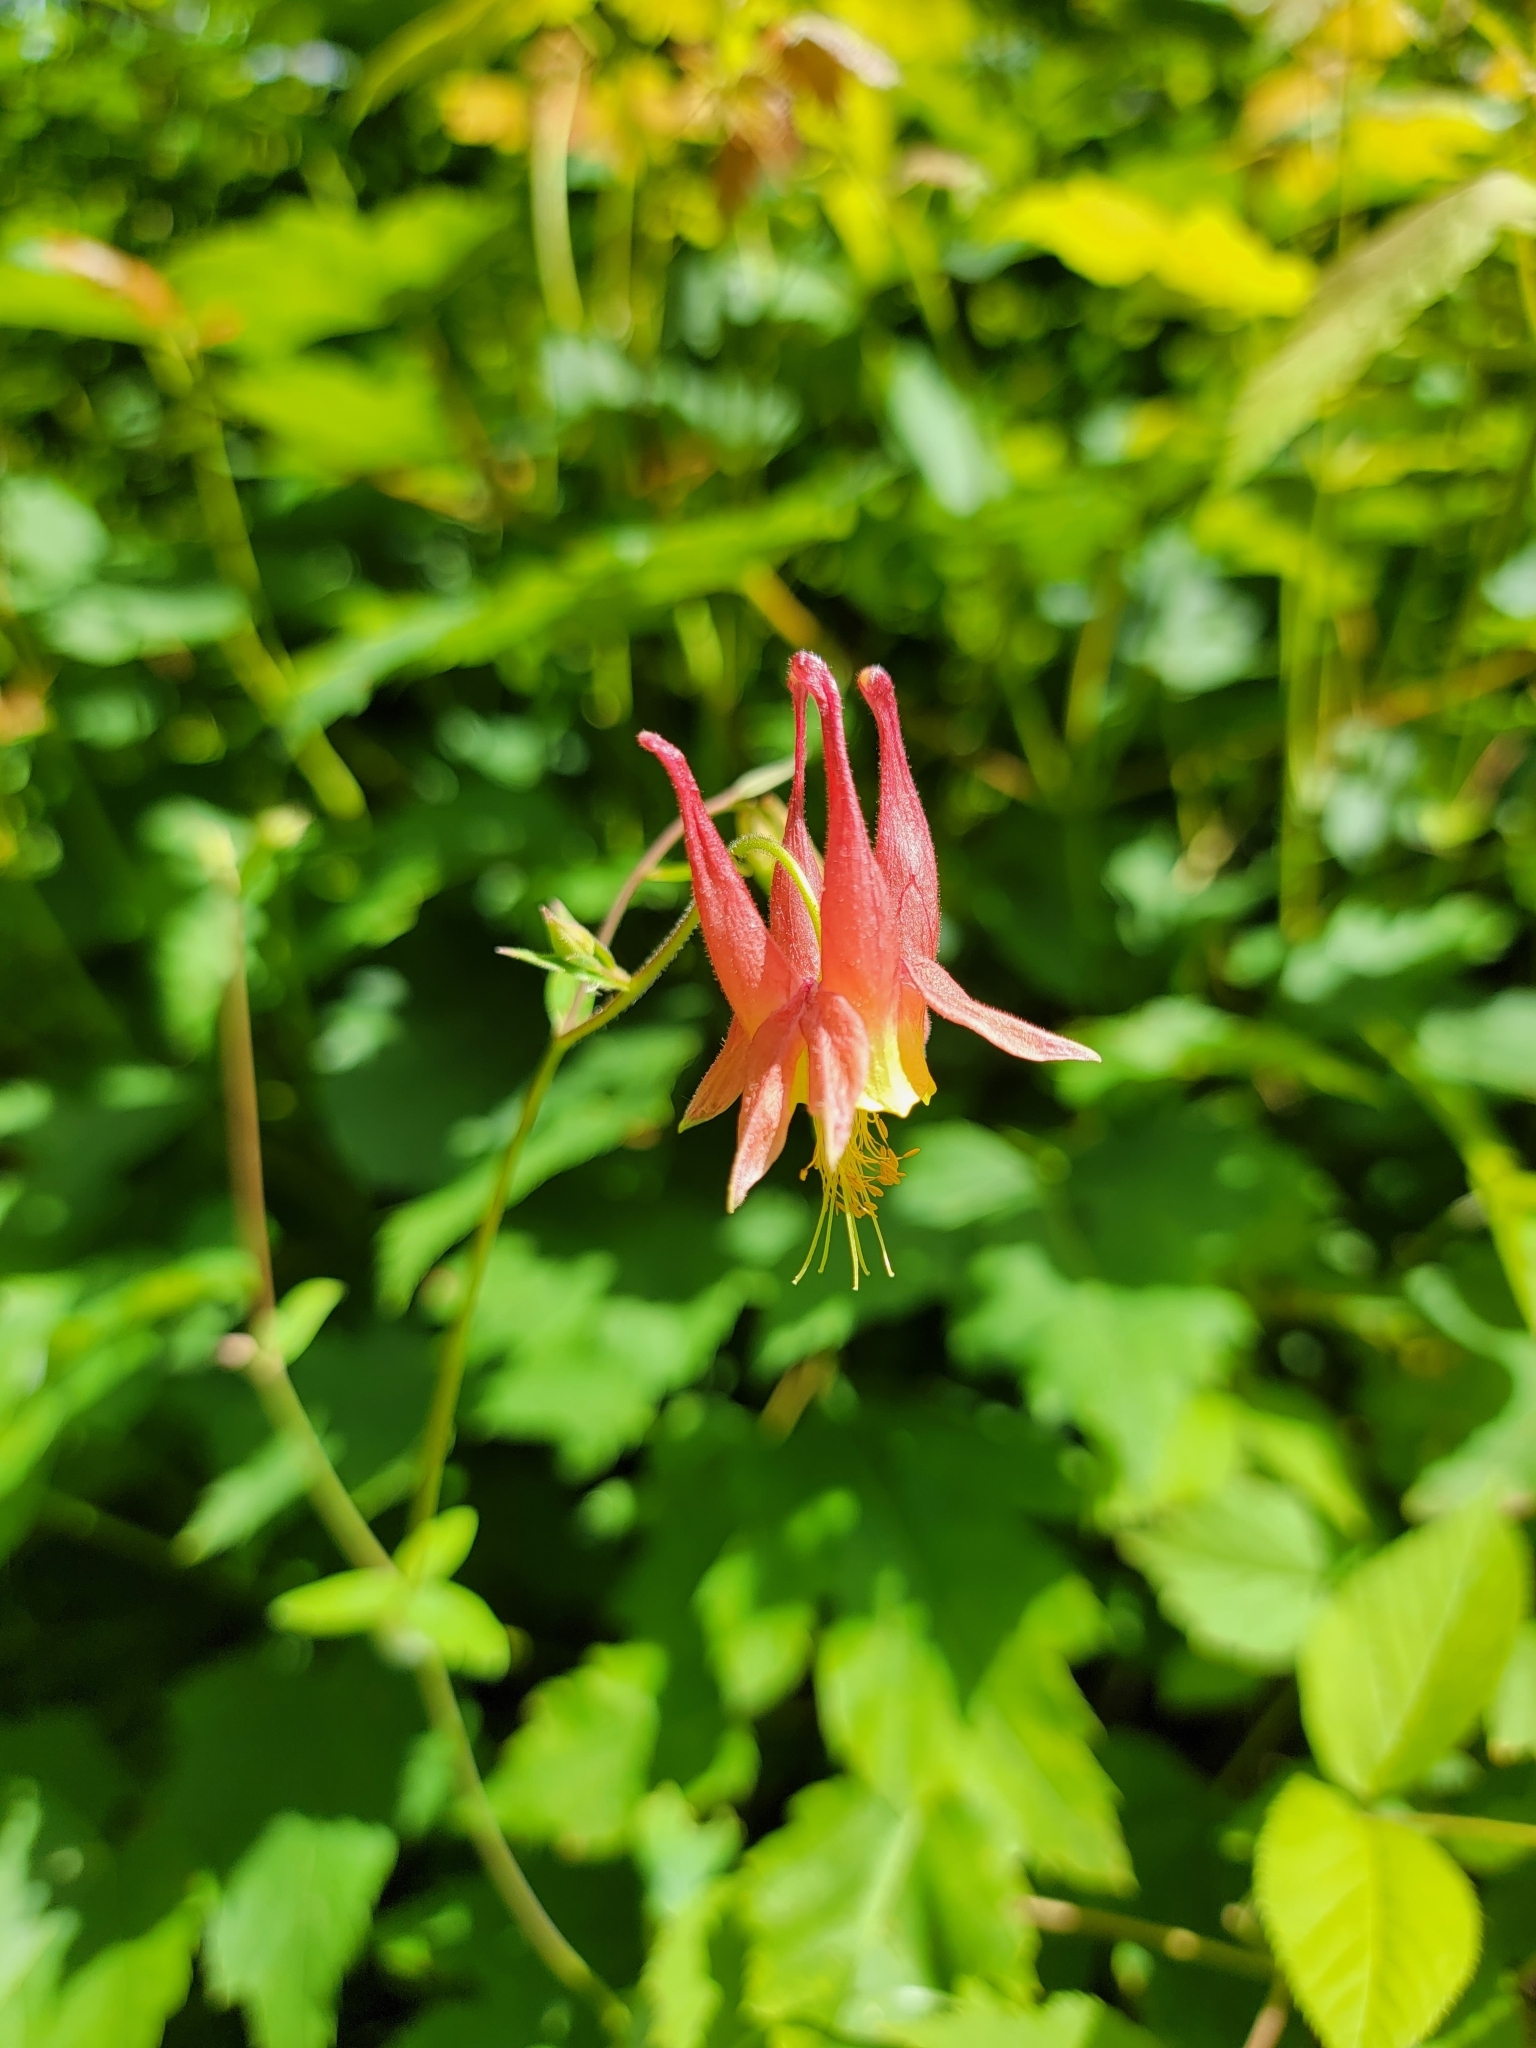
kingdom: Plantae
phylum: Tracheophyta
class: Magnoliopsida
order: Ranunculales
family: Ranunculaceae
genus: Aquilegia
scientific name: Aquilegia canadensis
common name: American columbine
